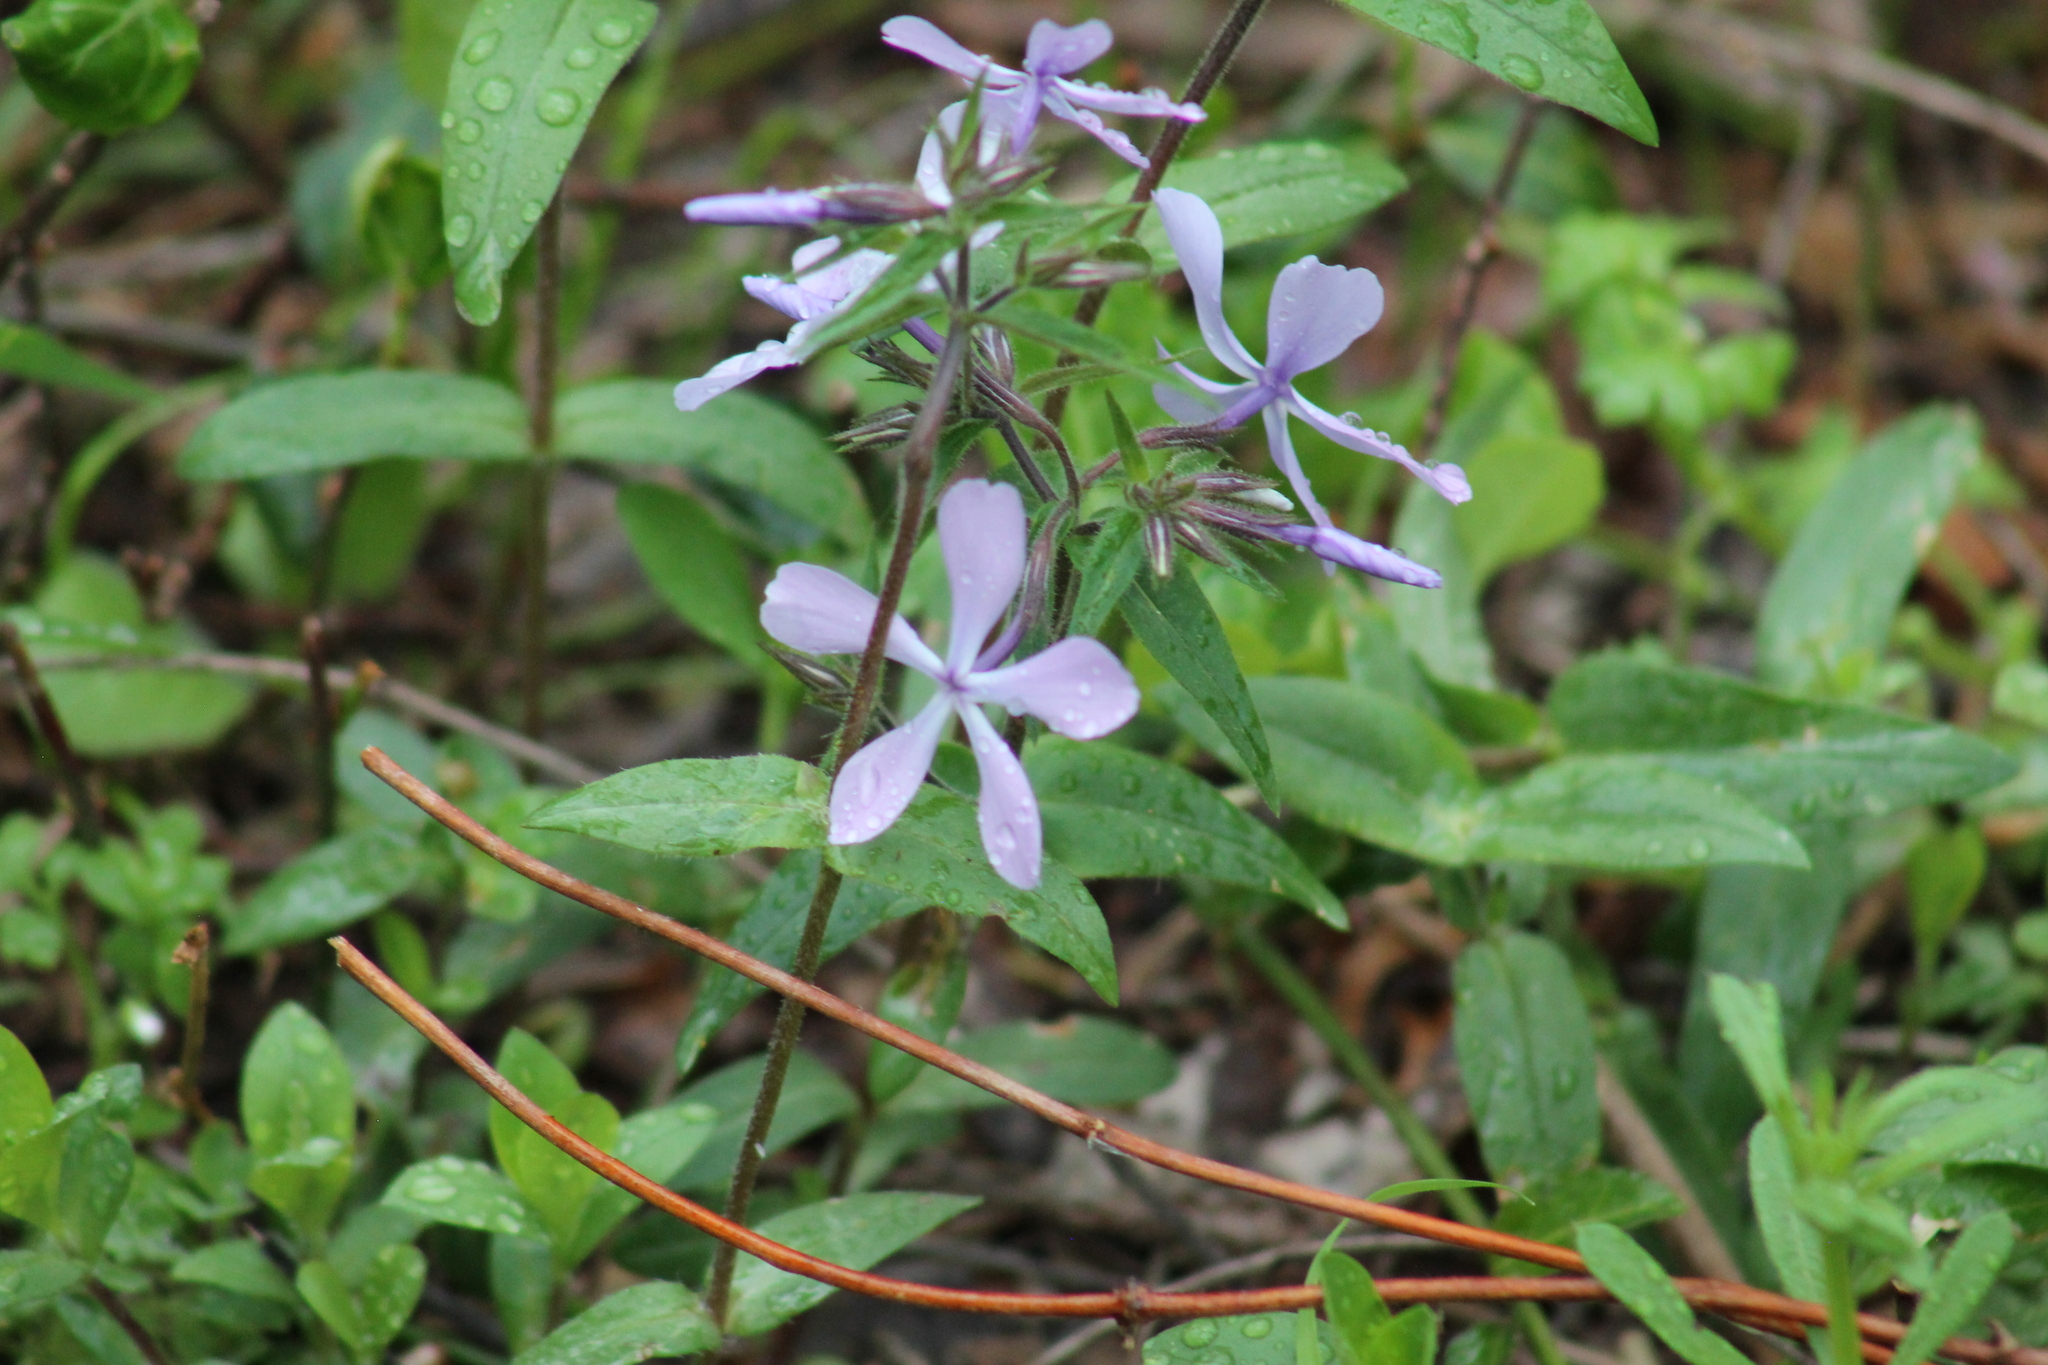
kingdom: Plantae
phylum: Tracheophyta
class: Magnoliopsida
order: Ericales
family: Polemoniaceae
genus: Phlox
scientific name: Phlox divaricata
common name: Blue phlox
